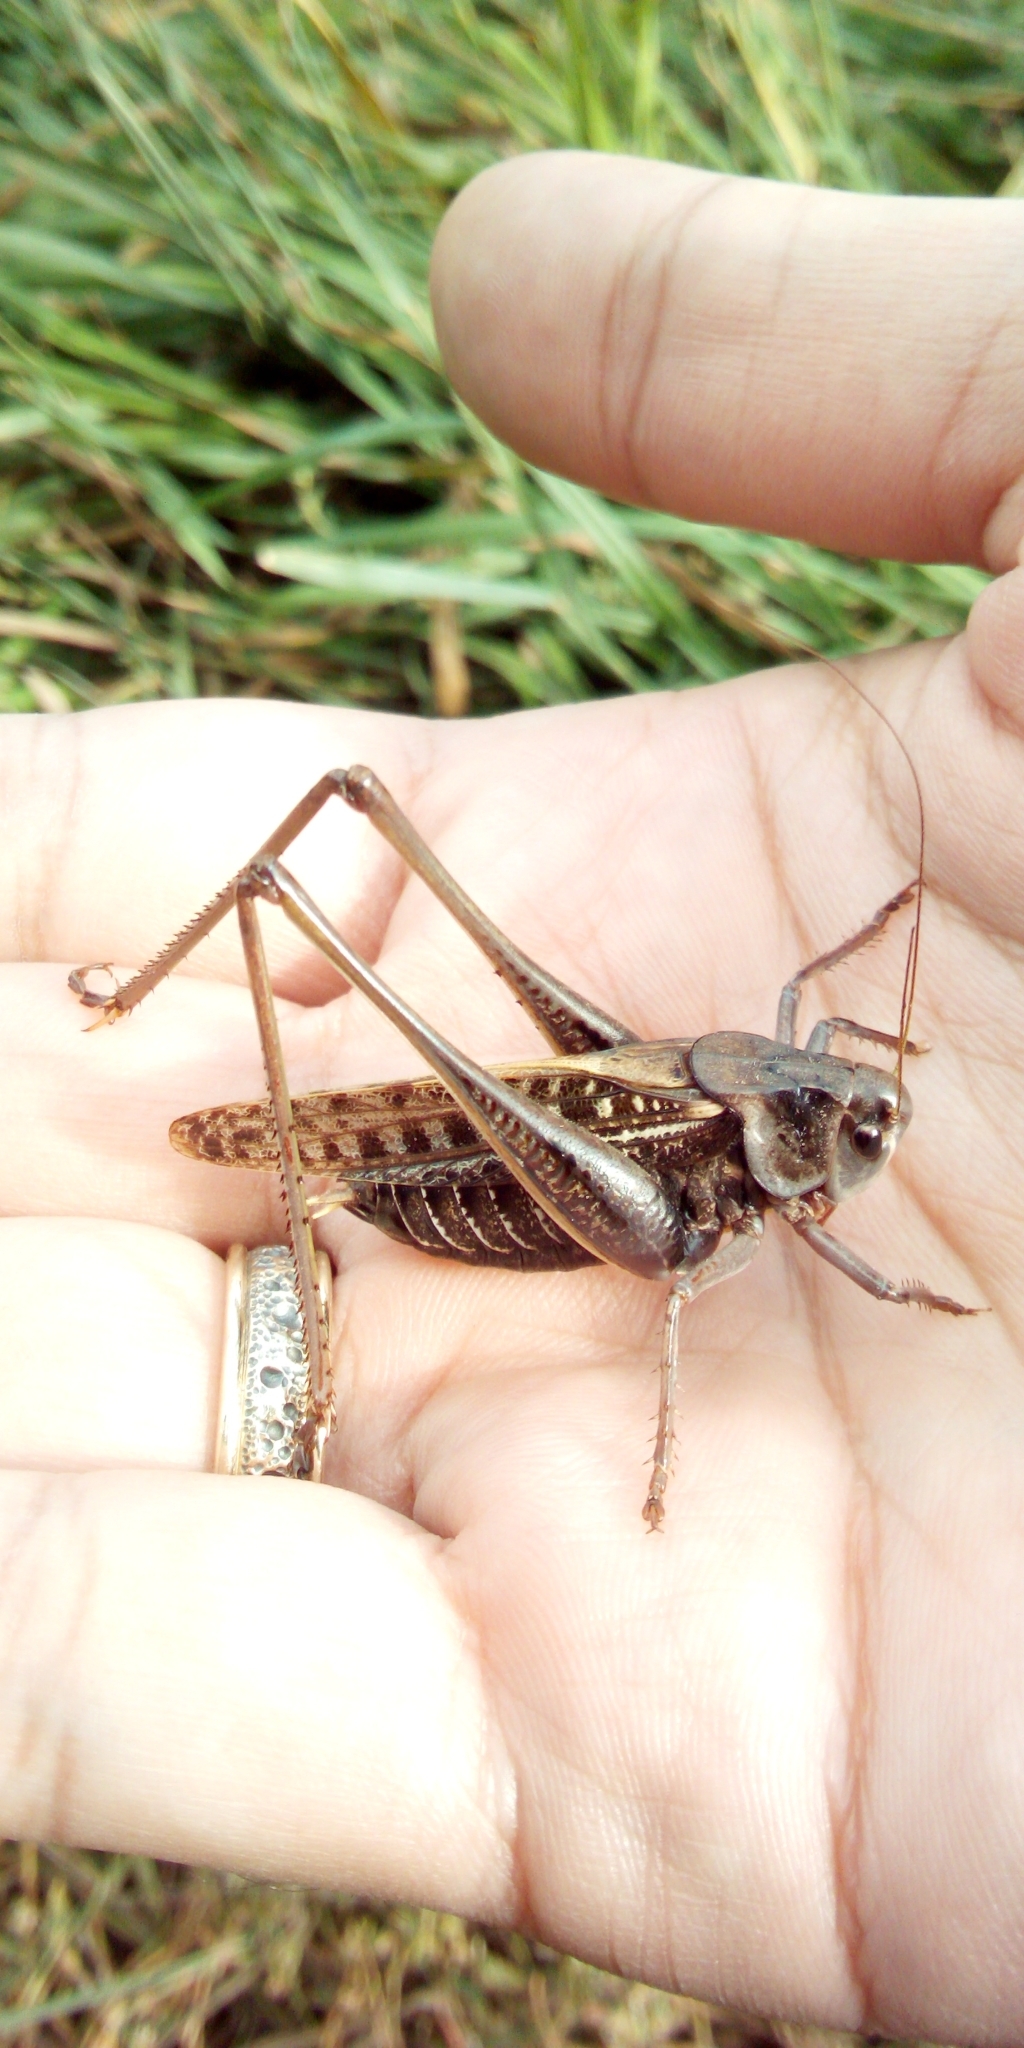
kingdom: Animalia
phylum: Arthropoda
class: Insecta
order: Orthoptera
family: Tettigoniidae
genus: Decticus
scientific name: Decticus verrucivorus
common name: Wart-biter
